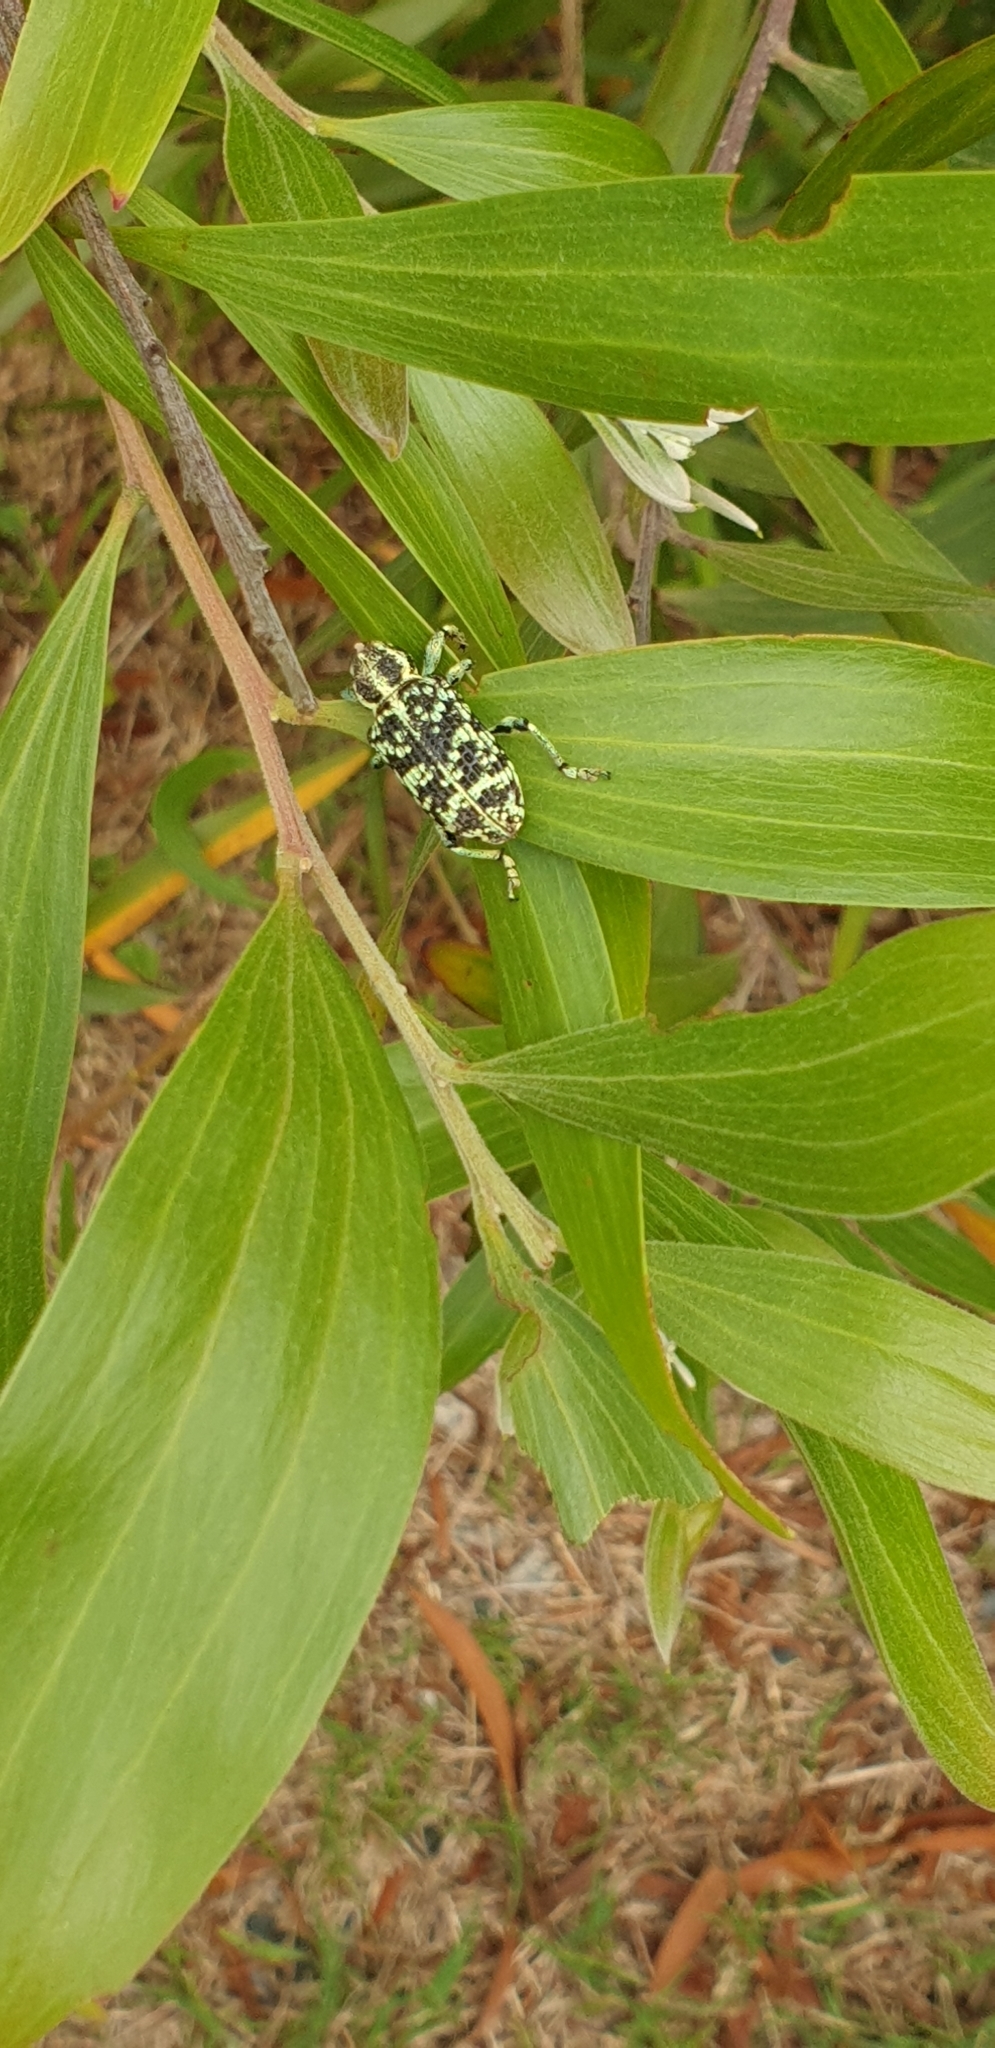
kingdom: Animalia
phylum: Arthropoda
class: Insecta
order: Coleoptera
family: Curculionidae
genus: Chrysolopus
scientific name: Chrysolopus spectabilis
